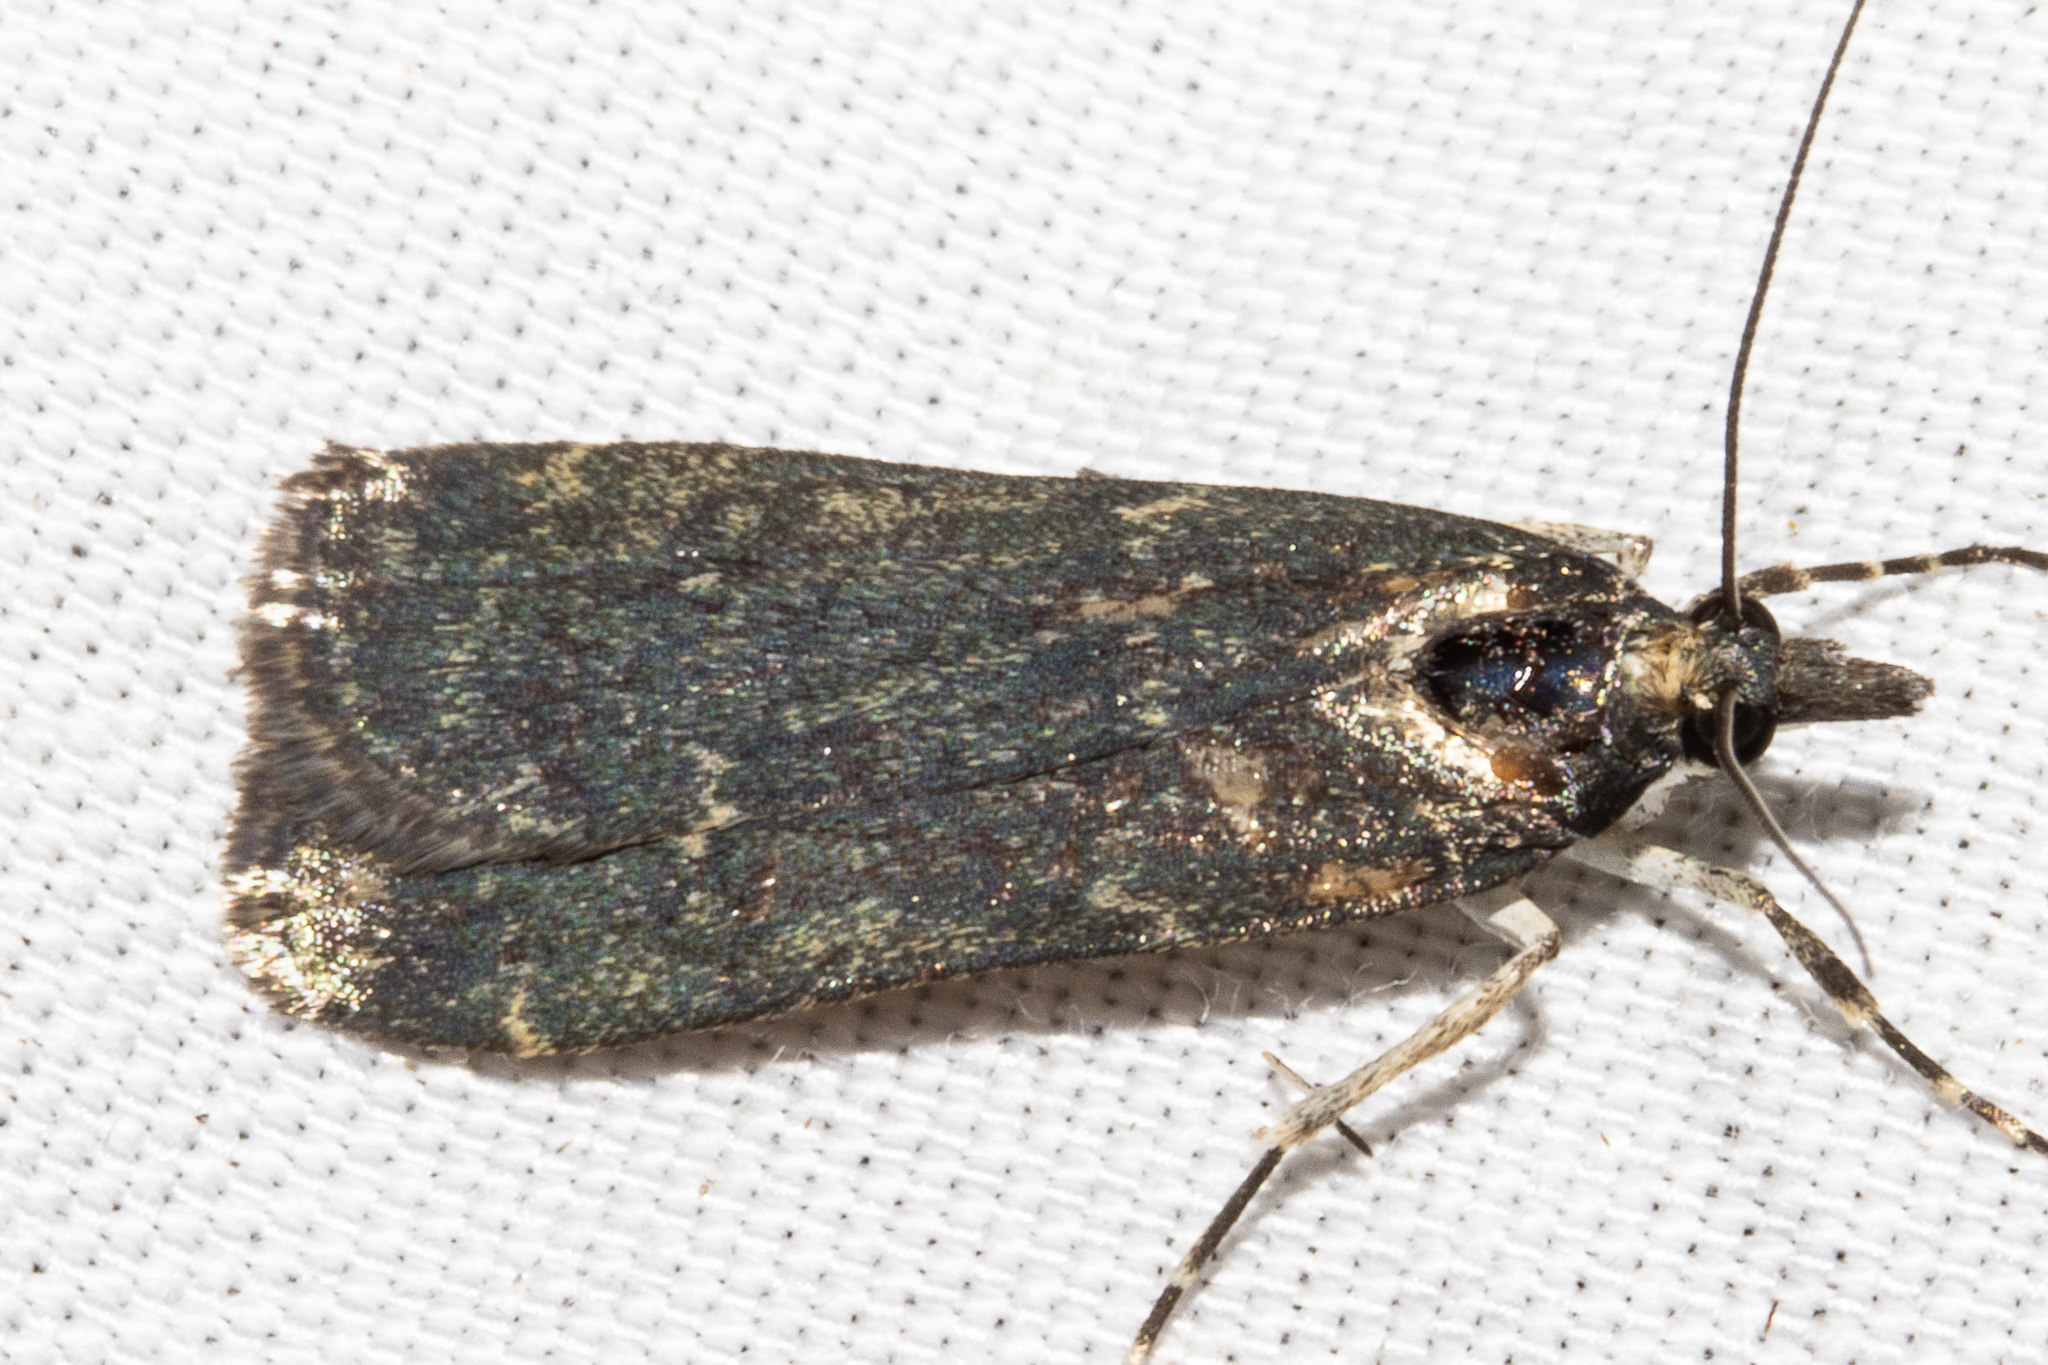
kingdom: Animalia
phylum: Arthropoda
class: Insecta
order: Lepidoptera
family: Crambidae
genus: Eudonia
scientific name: Eudonia cataxesta
